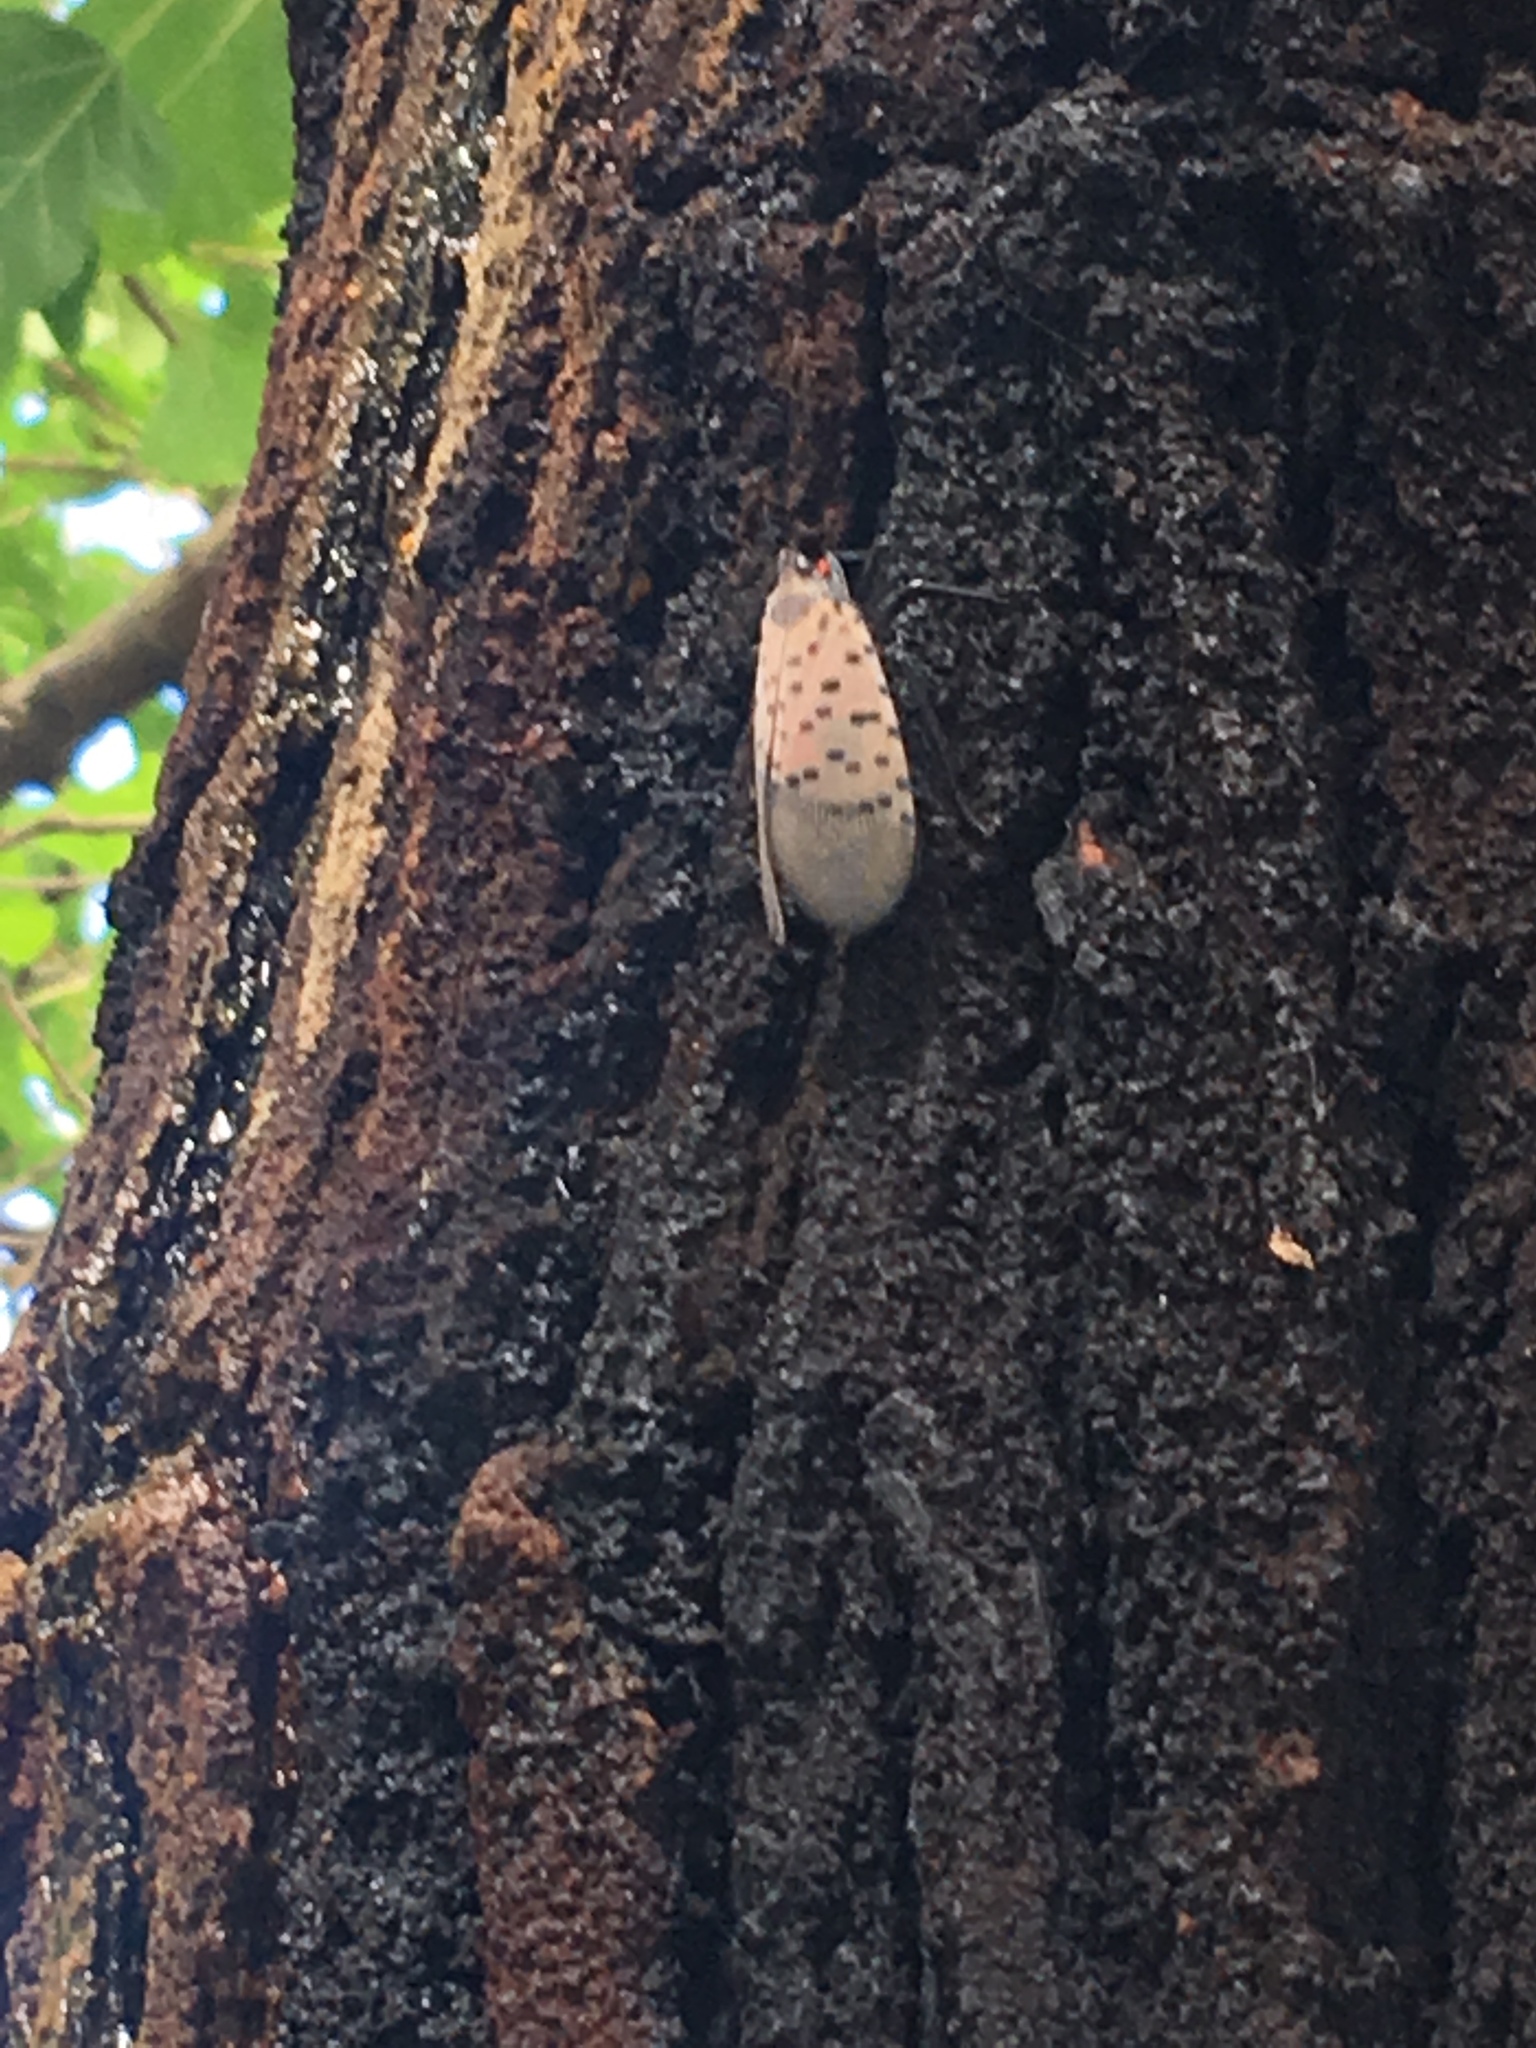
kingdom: Animalia
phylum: Arthropoda
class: Insecta
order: Hemiptera
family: Fulgoridae
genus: Lycorma
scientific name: Lycorma delicatula
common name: Spotted lanternfly
